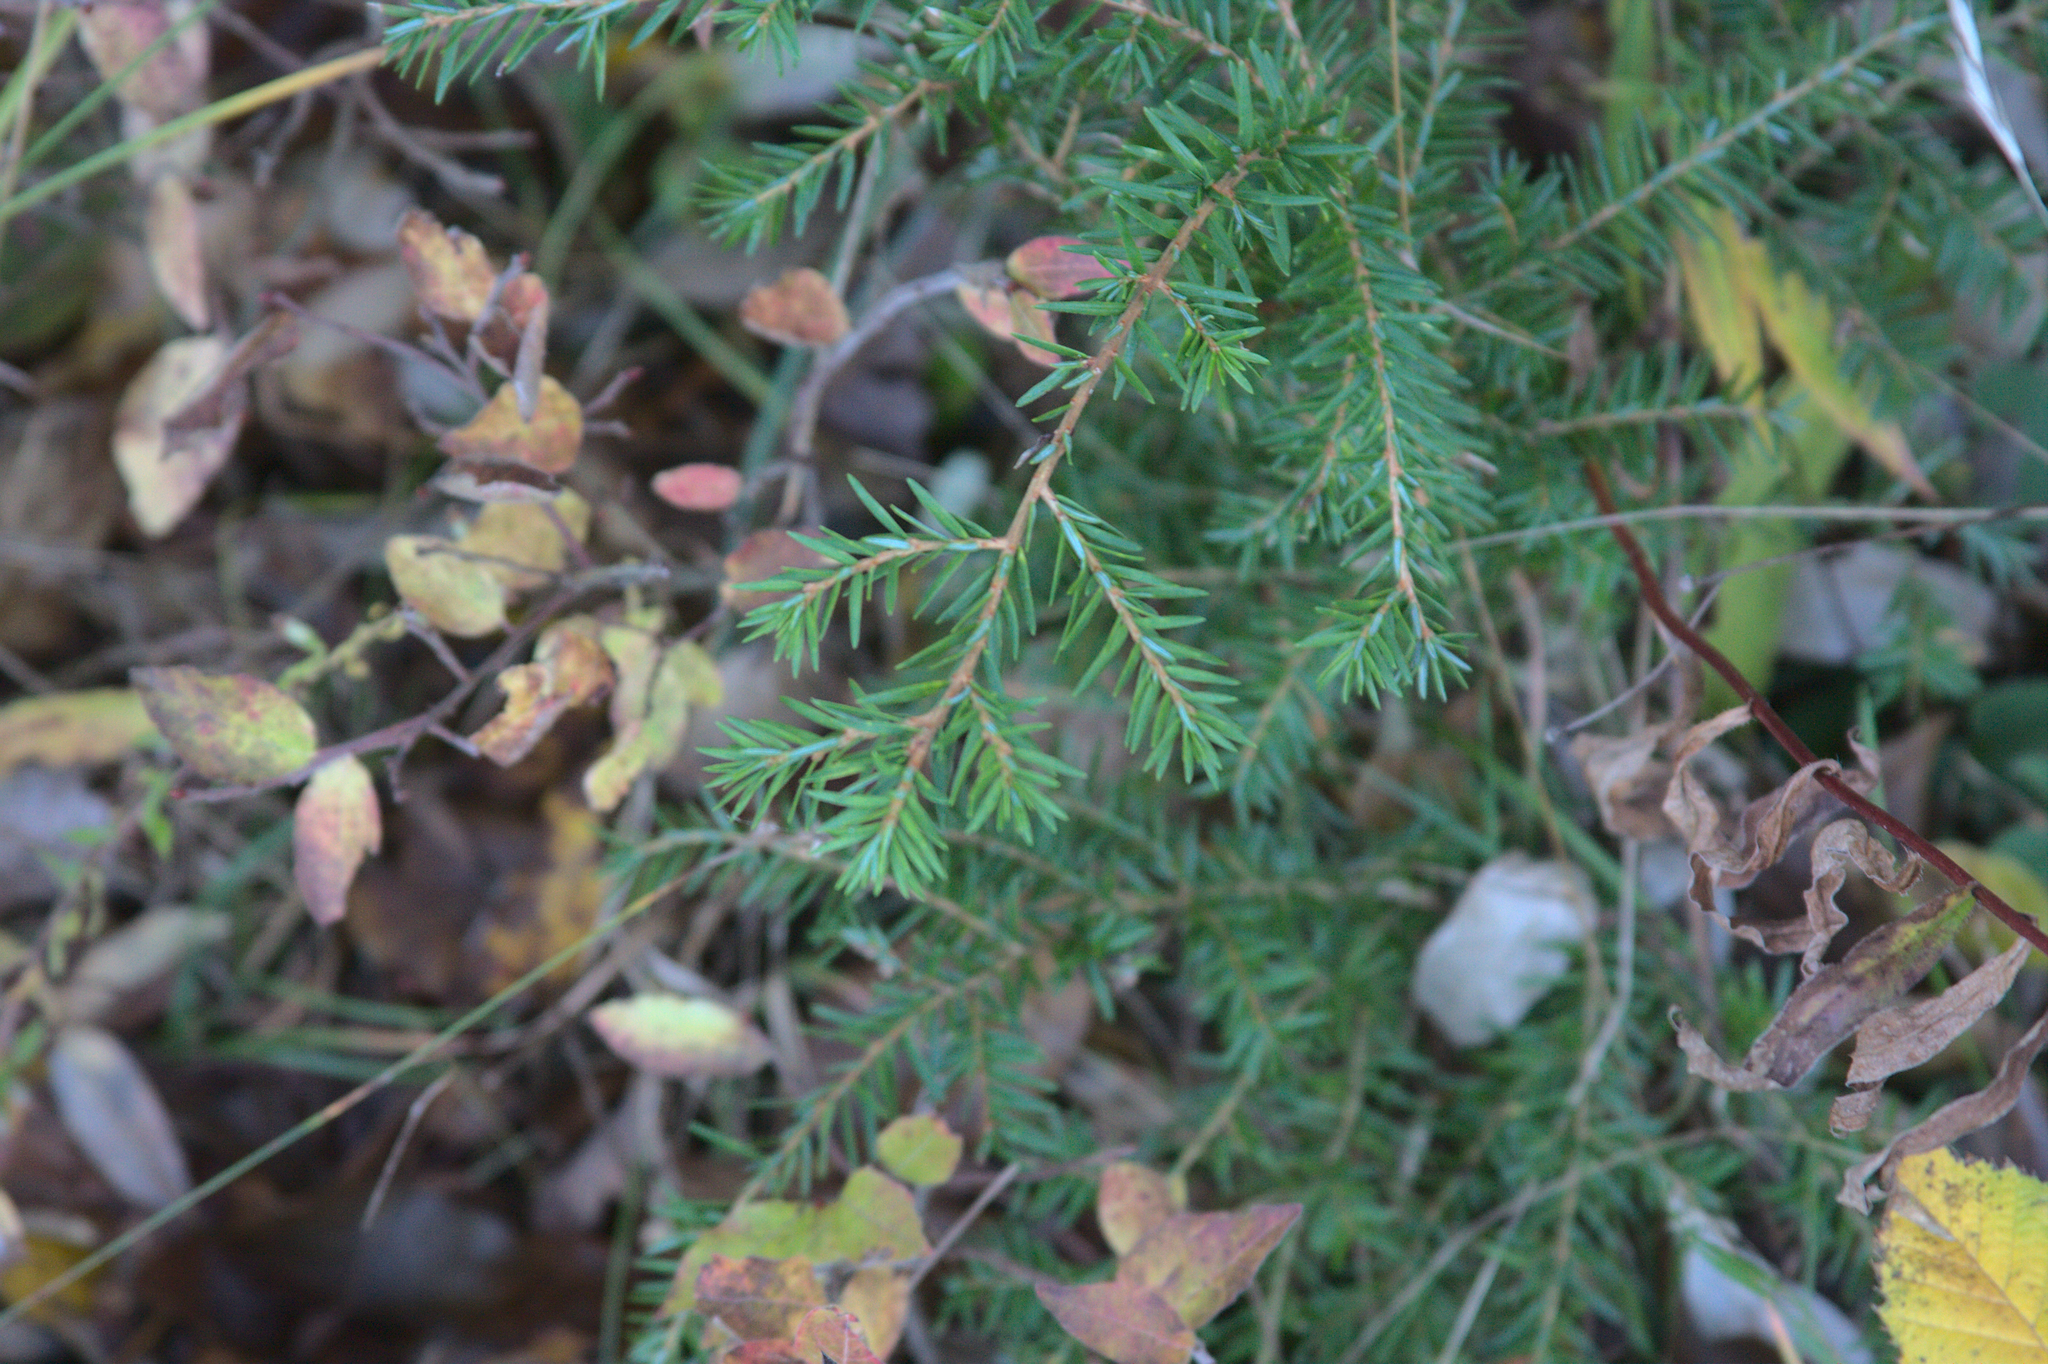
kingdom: Plantae
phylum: Tracheophyta
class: Pinopsida
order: Pinales
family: Pinaceae
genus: Tsuga
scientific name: Tsuga canadensis
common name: Eastern hemlock
